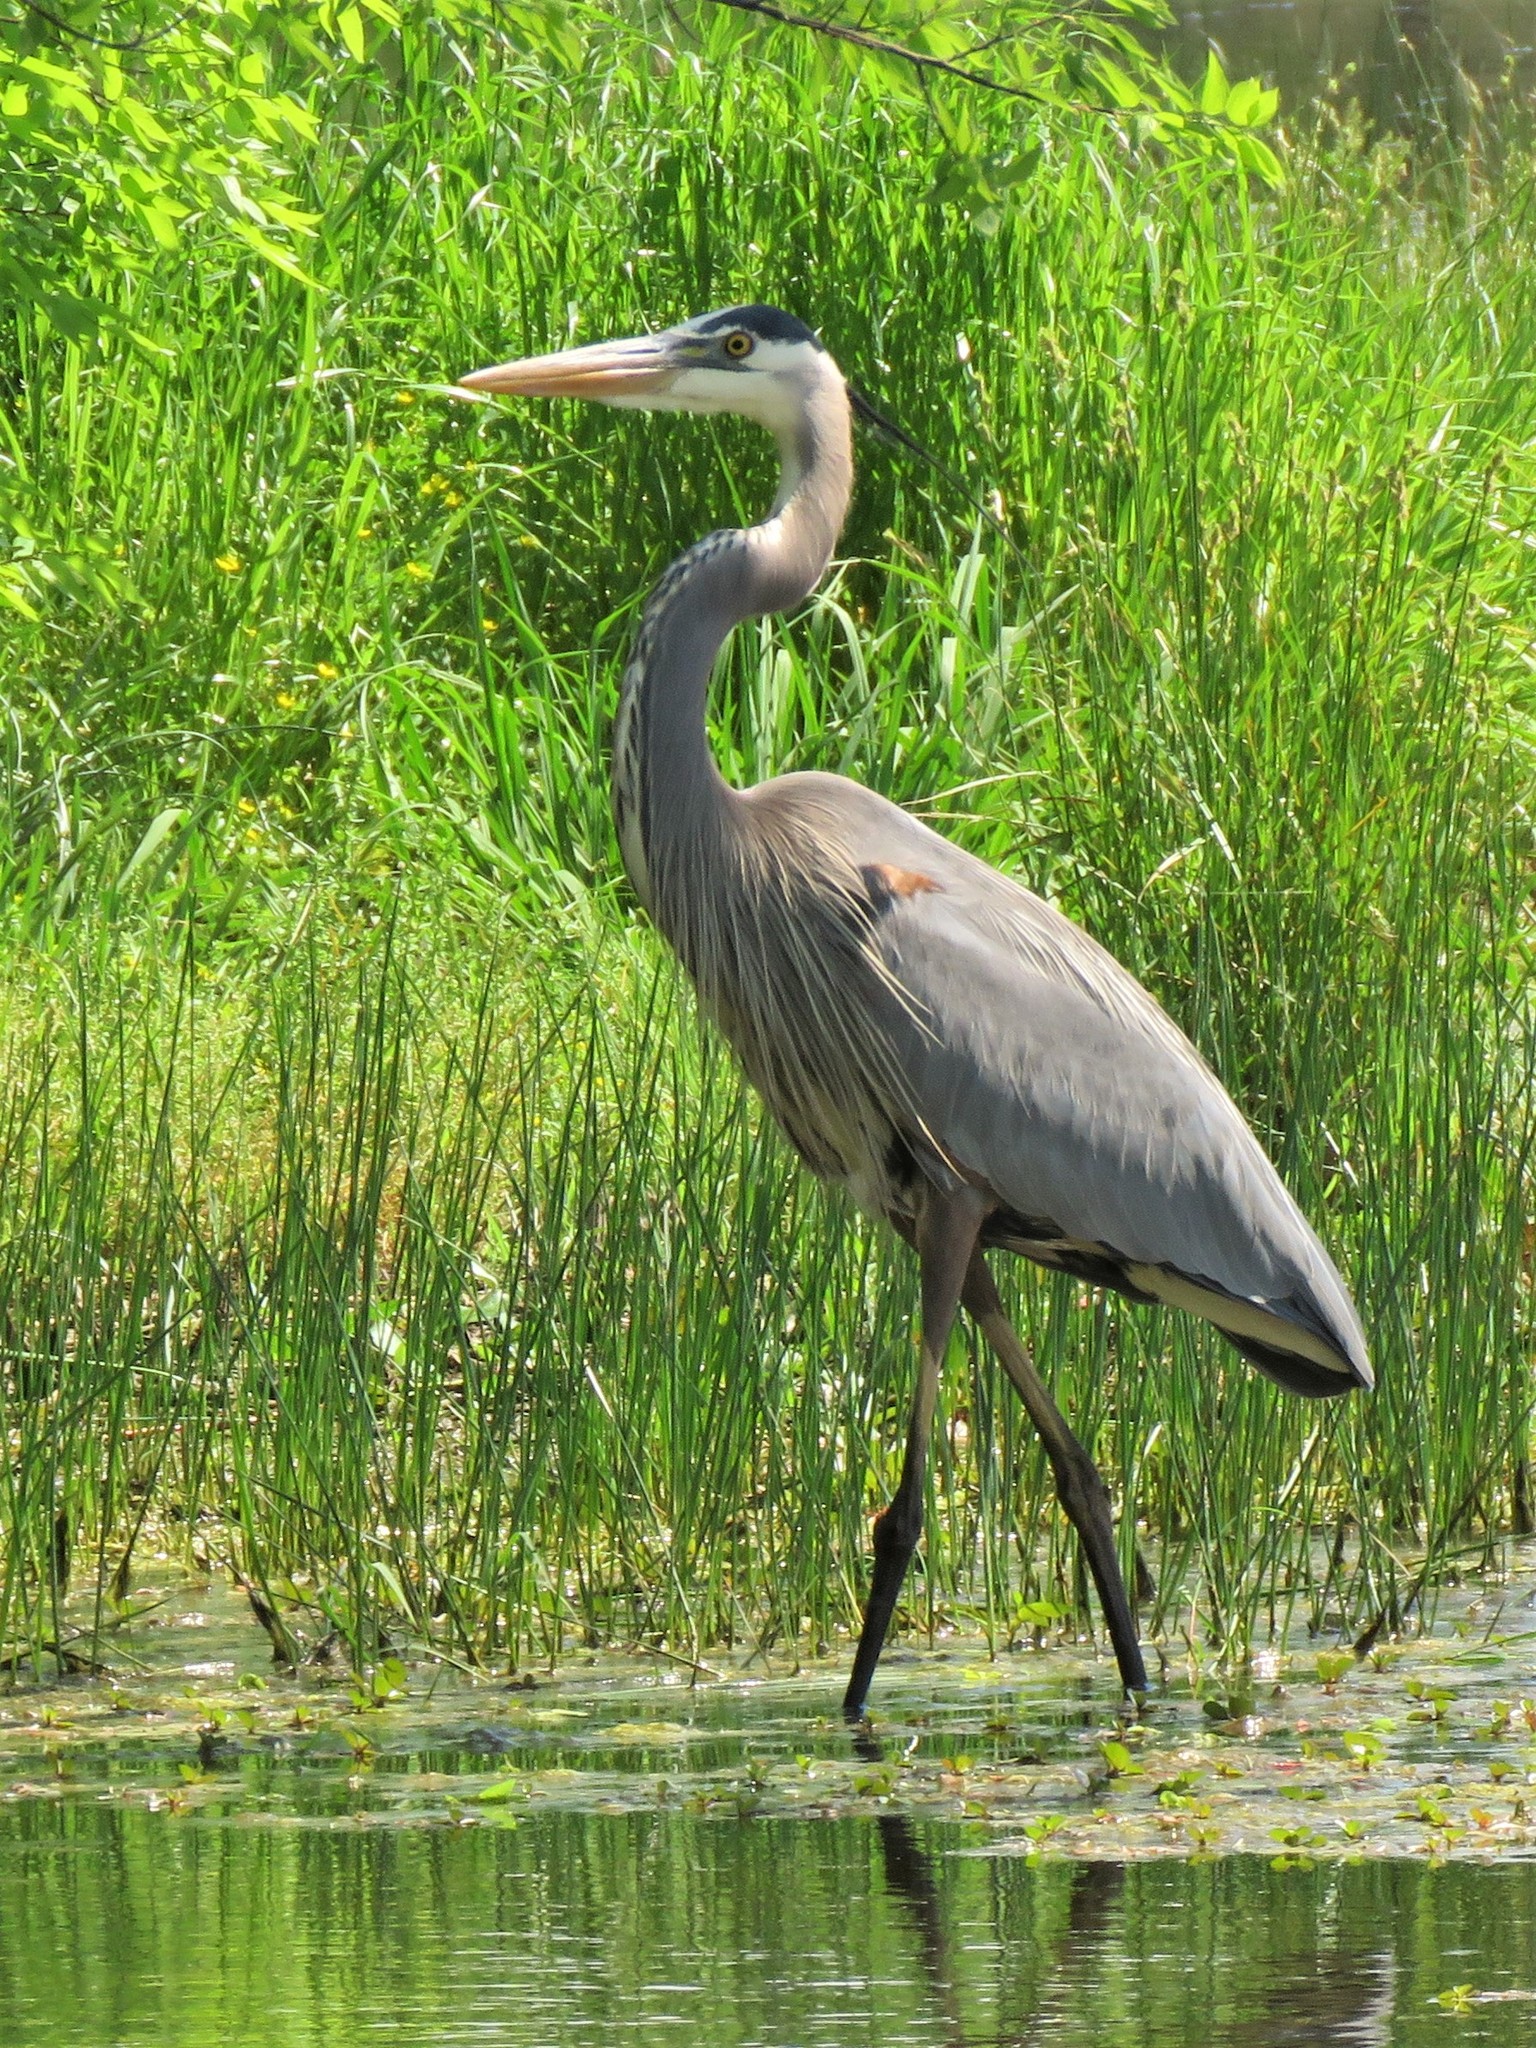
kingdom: Animalia
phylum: Chordata
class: Aves
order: Pelecaniformes
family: Ardeidae
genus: Ardea
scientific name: Ardea herodias
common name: Great blue heron
